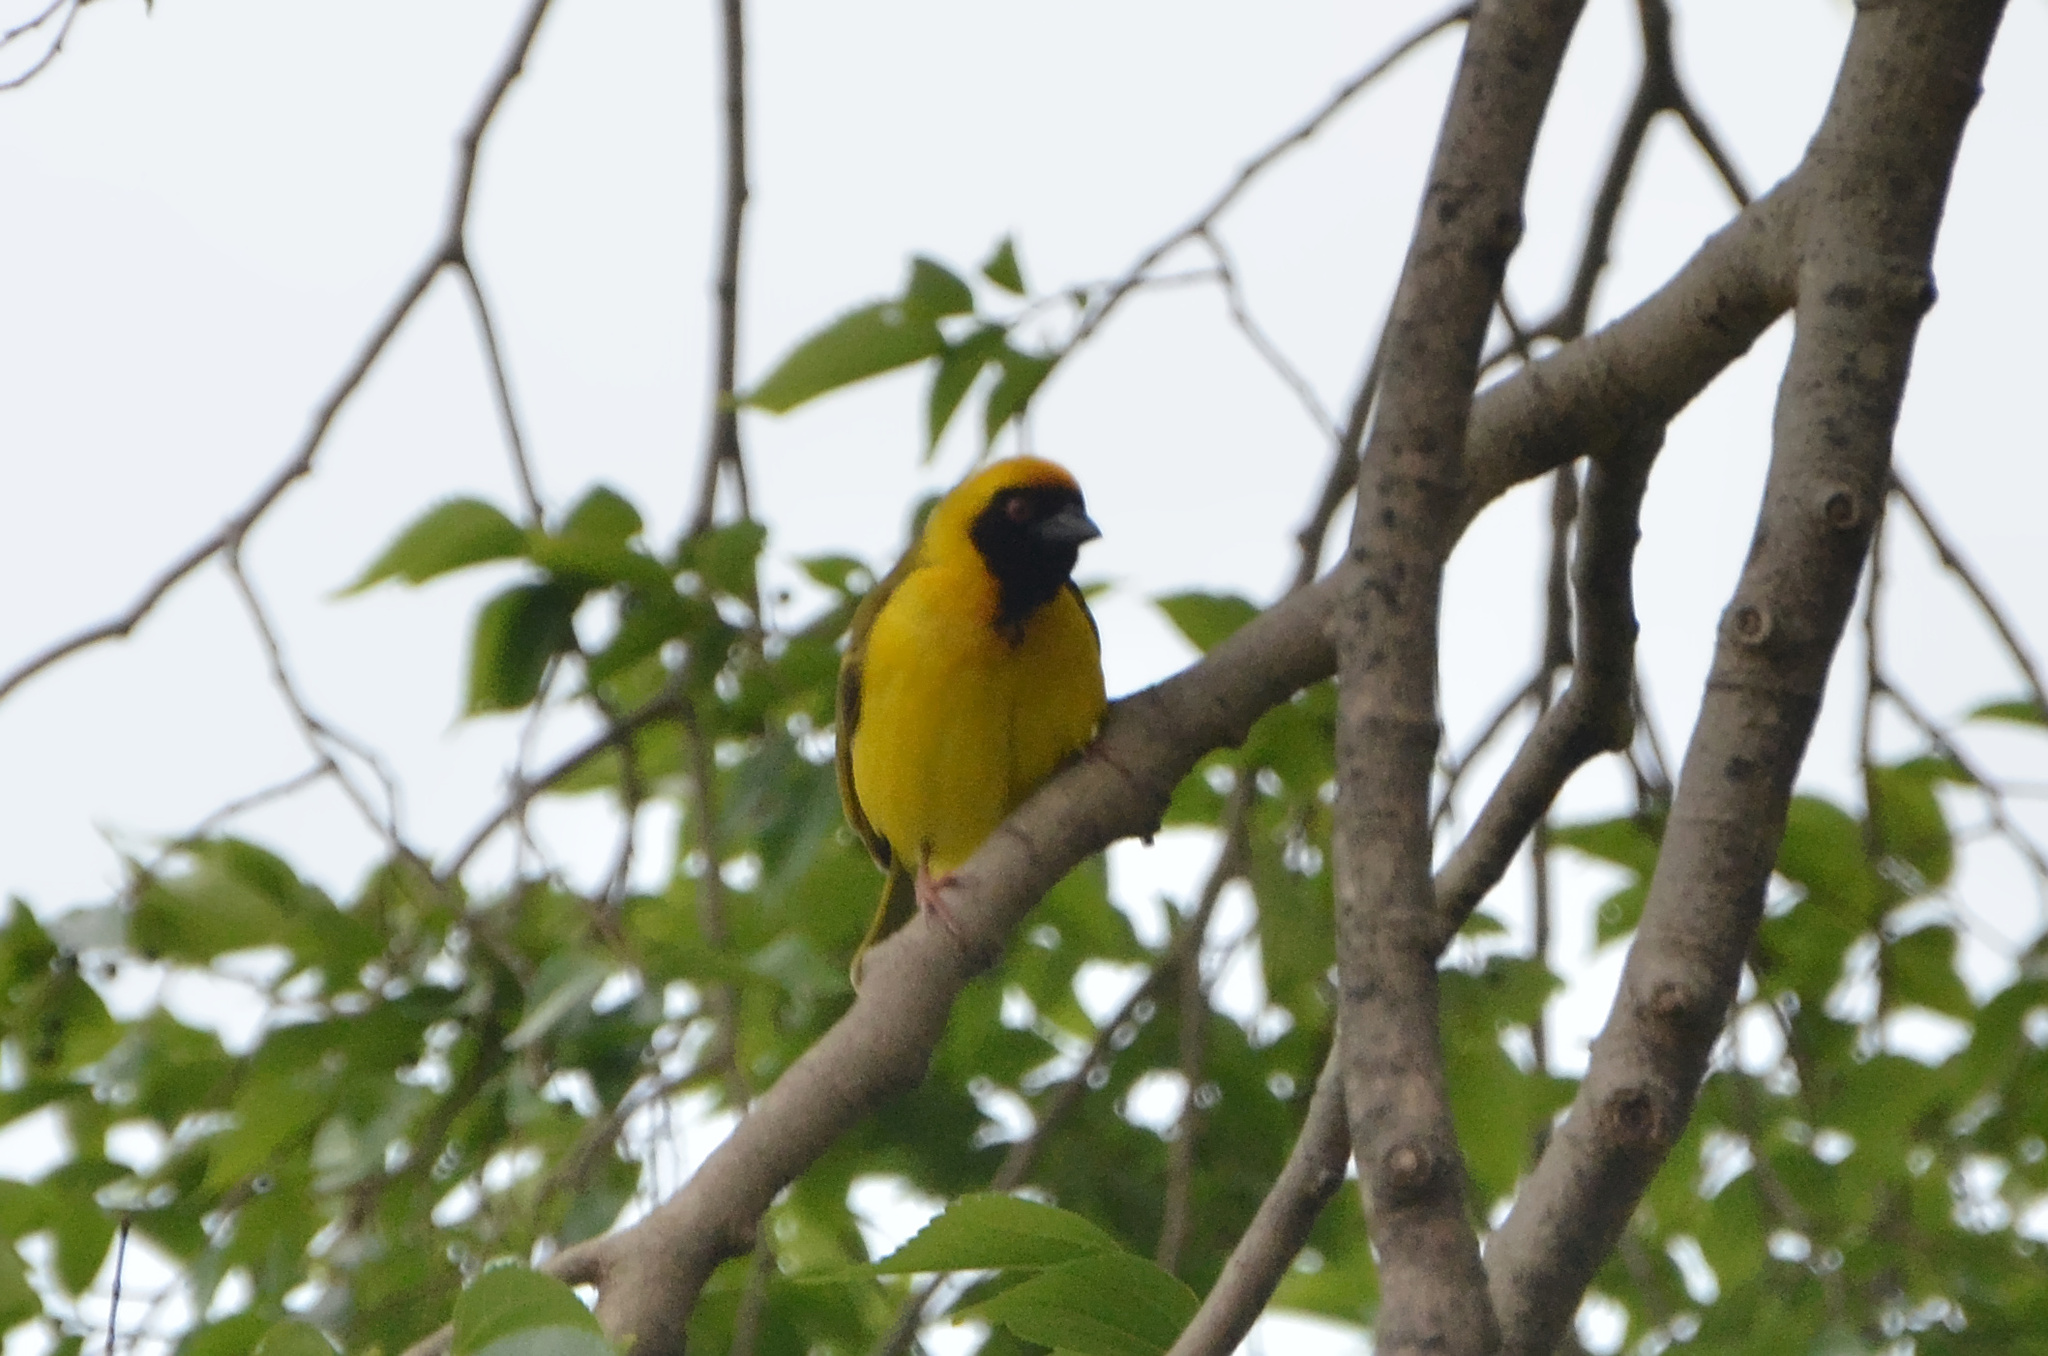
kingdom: Animalia
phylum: Chordata
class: Aves
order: Passeriformes
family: Ploceidae
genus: Ploceus
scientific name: Ploceus velatus
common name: Southern masked weaver
